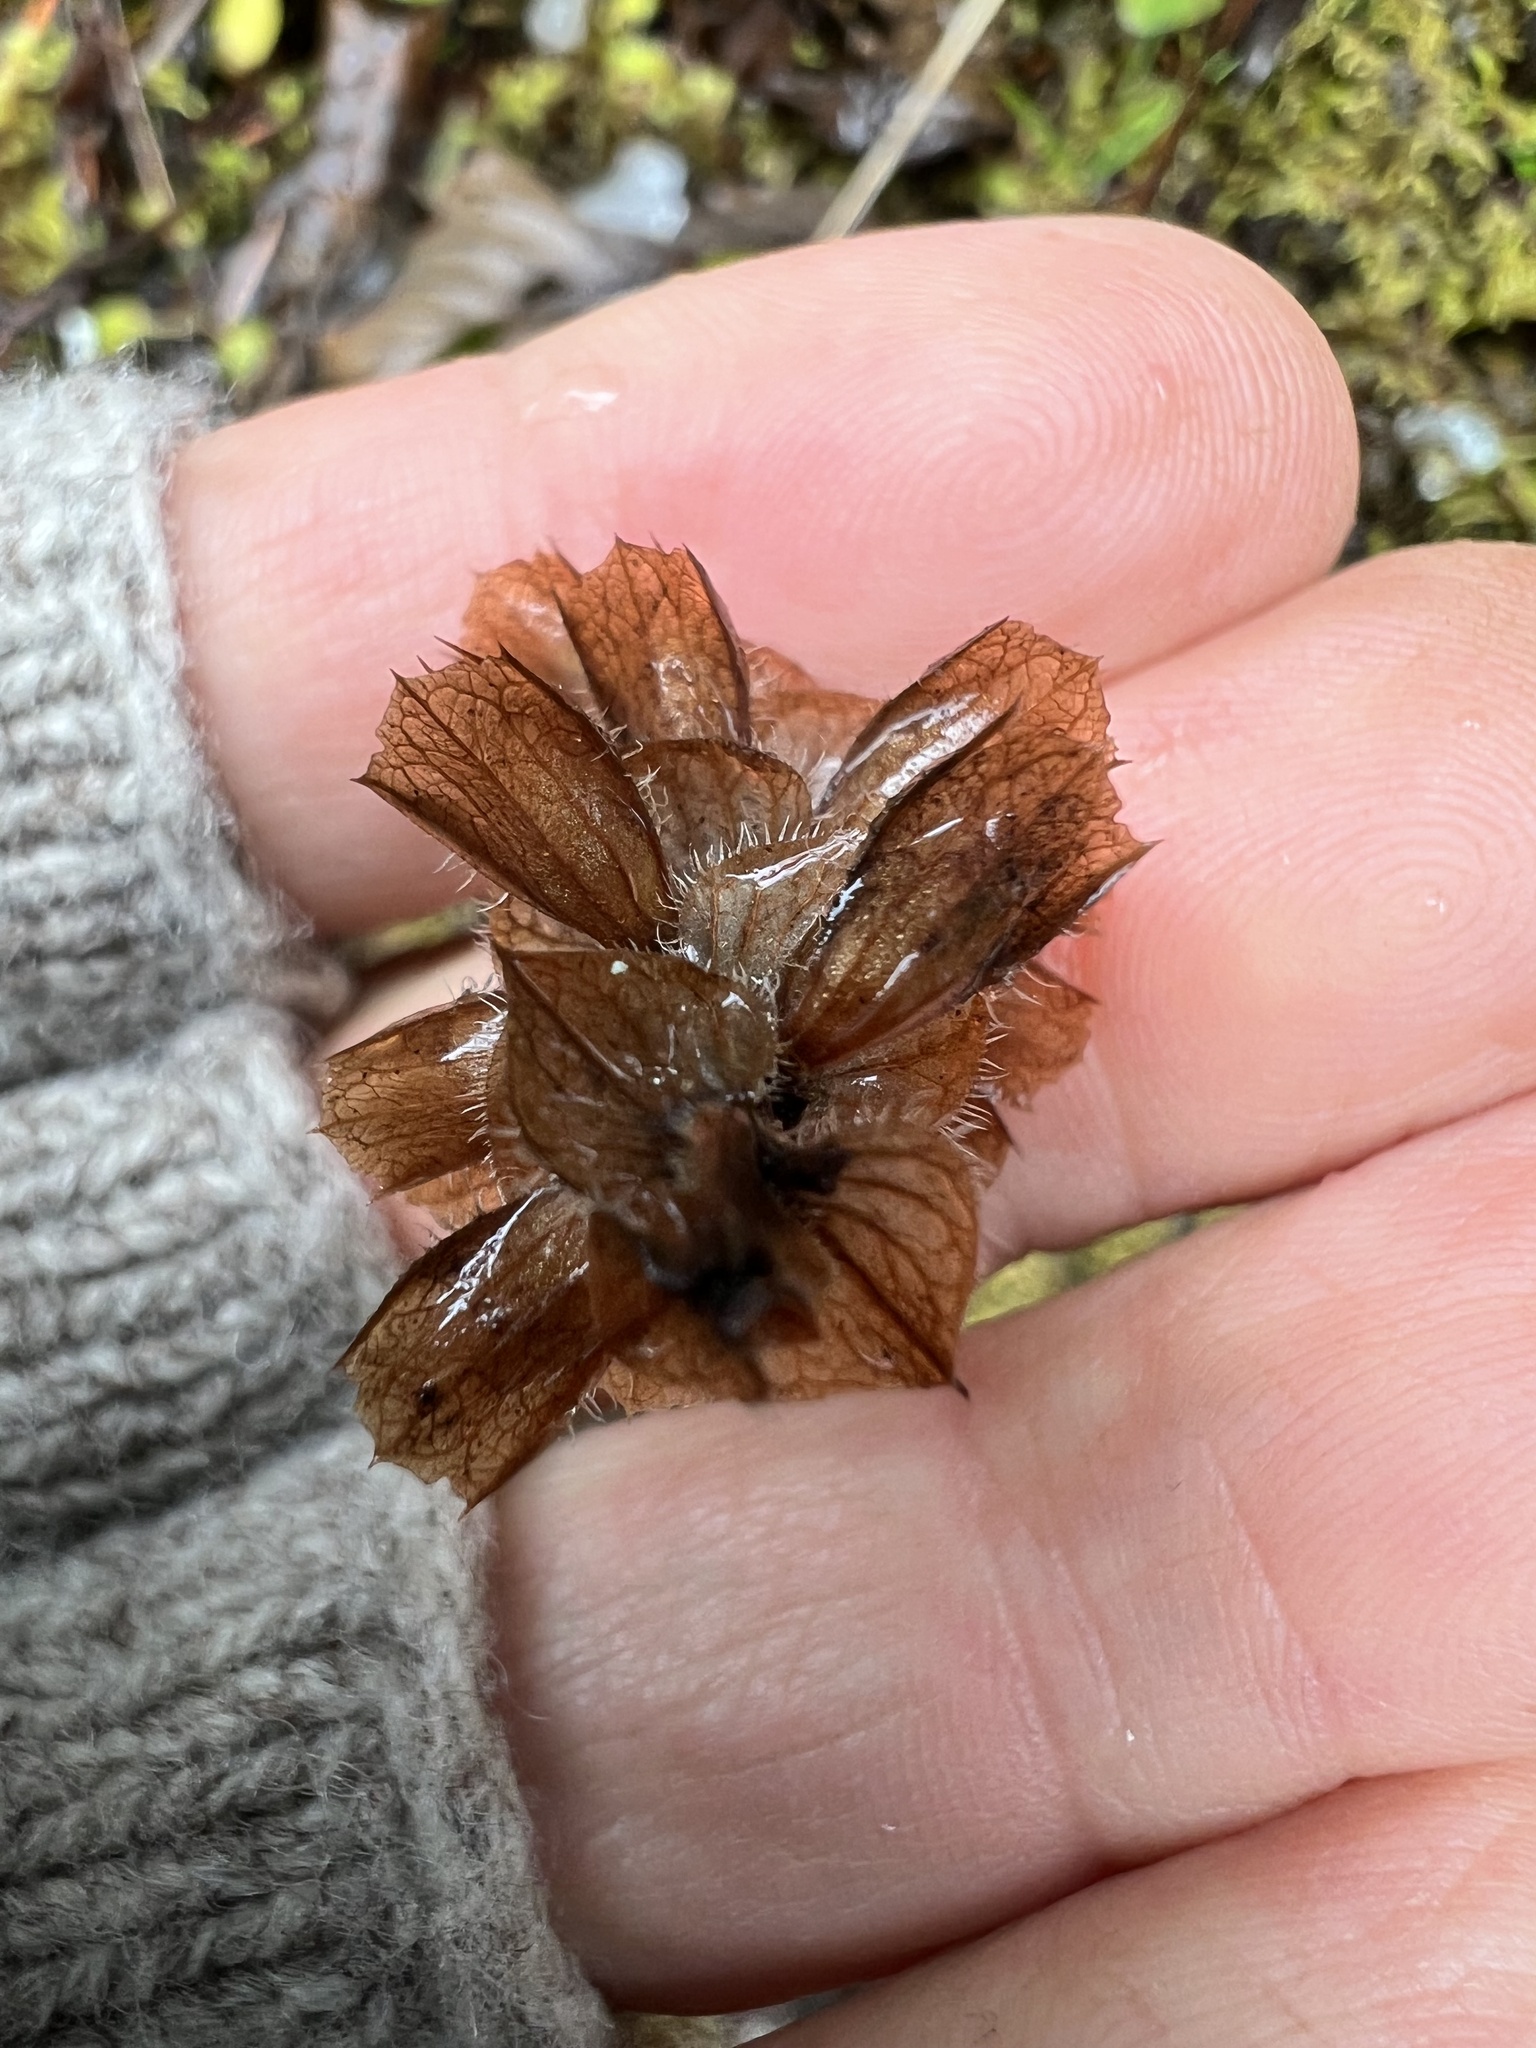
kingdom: Plantae
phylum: Tracheophyta
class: Magnoliopsida
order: Lamiales
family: Lamiaceae
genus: Prunella
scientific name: Prunella vulgaris
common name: Heal-all
